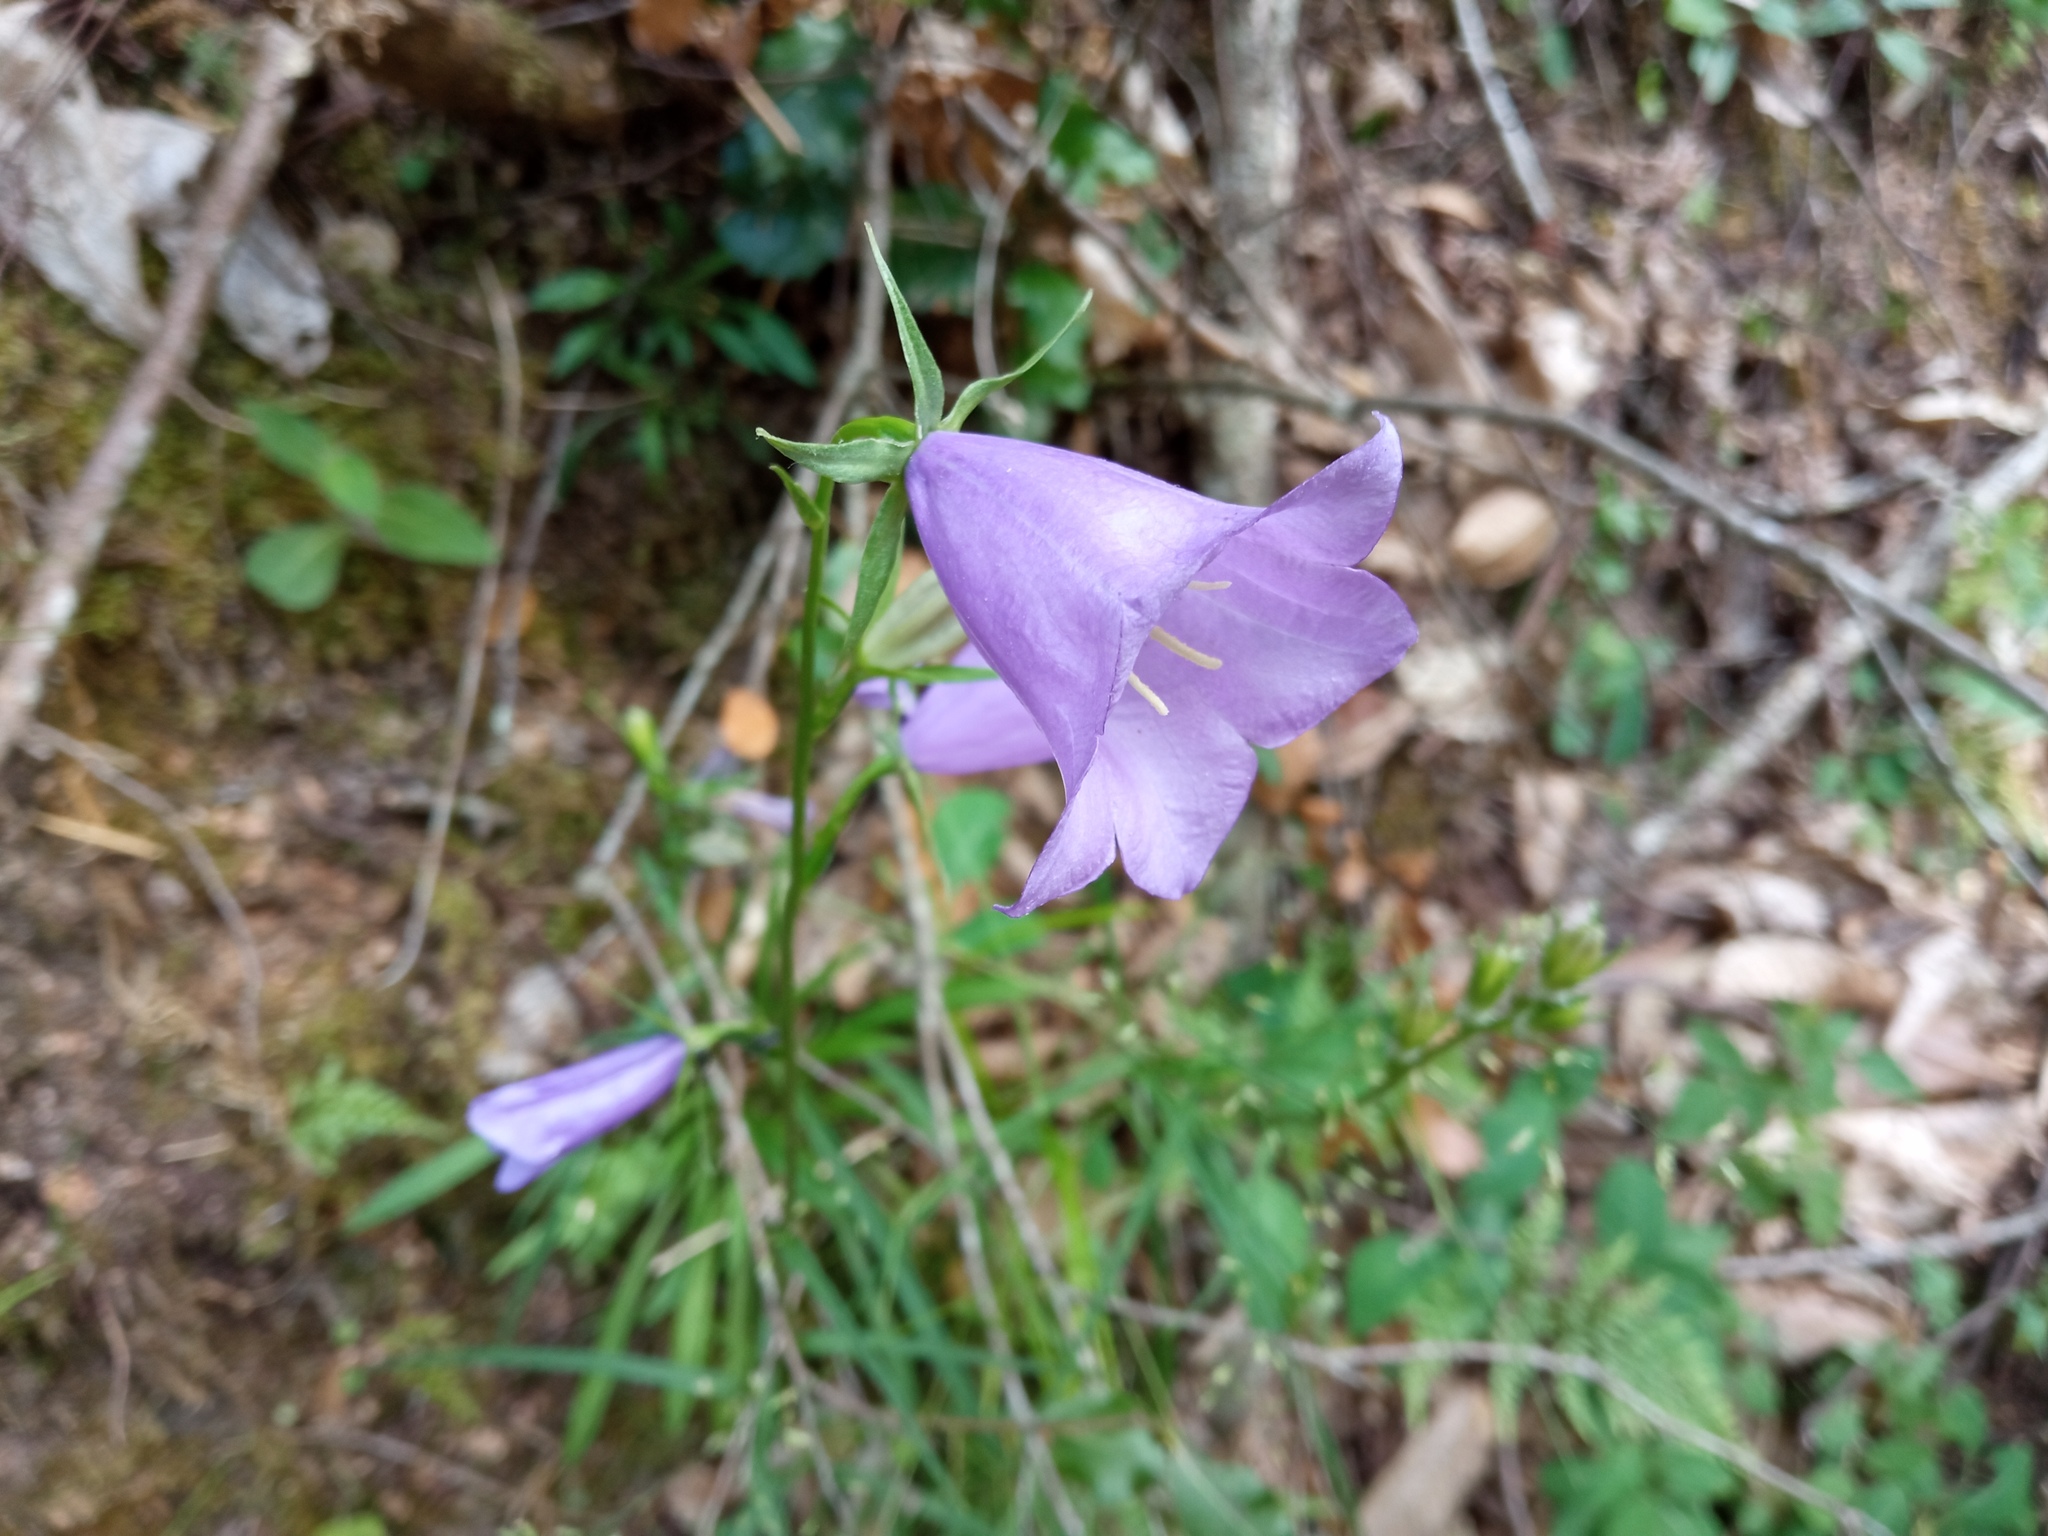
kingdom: Plantae
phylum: Tracheophyta
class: Magnoliopsida
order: Asterales
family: Campanulaceae
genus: Campanula
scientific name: Campanula persicifolia
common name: Peach-leaved bellflower
